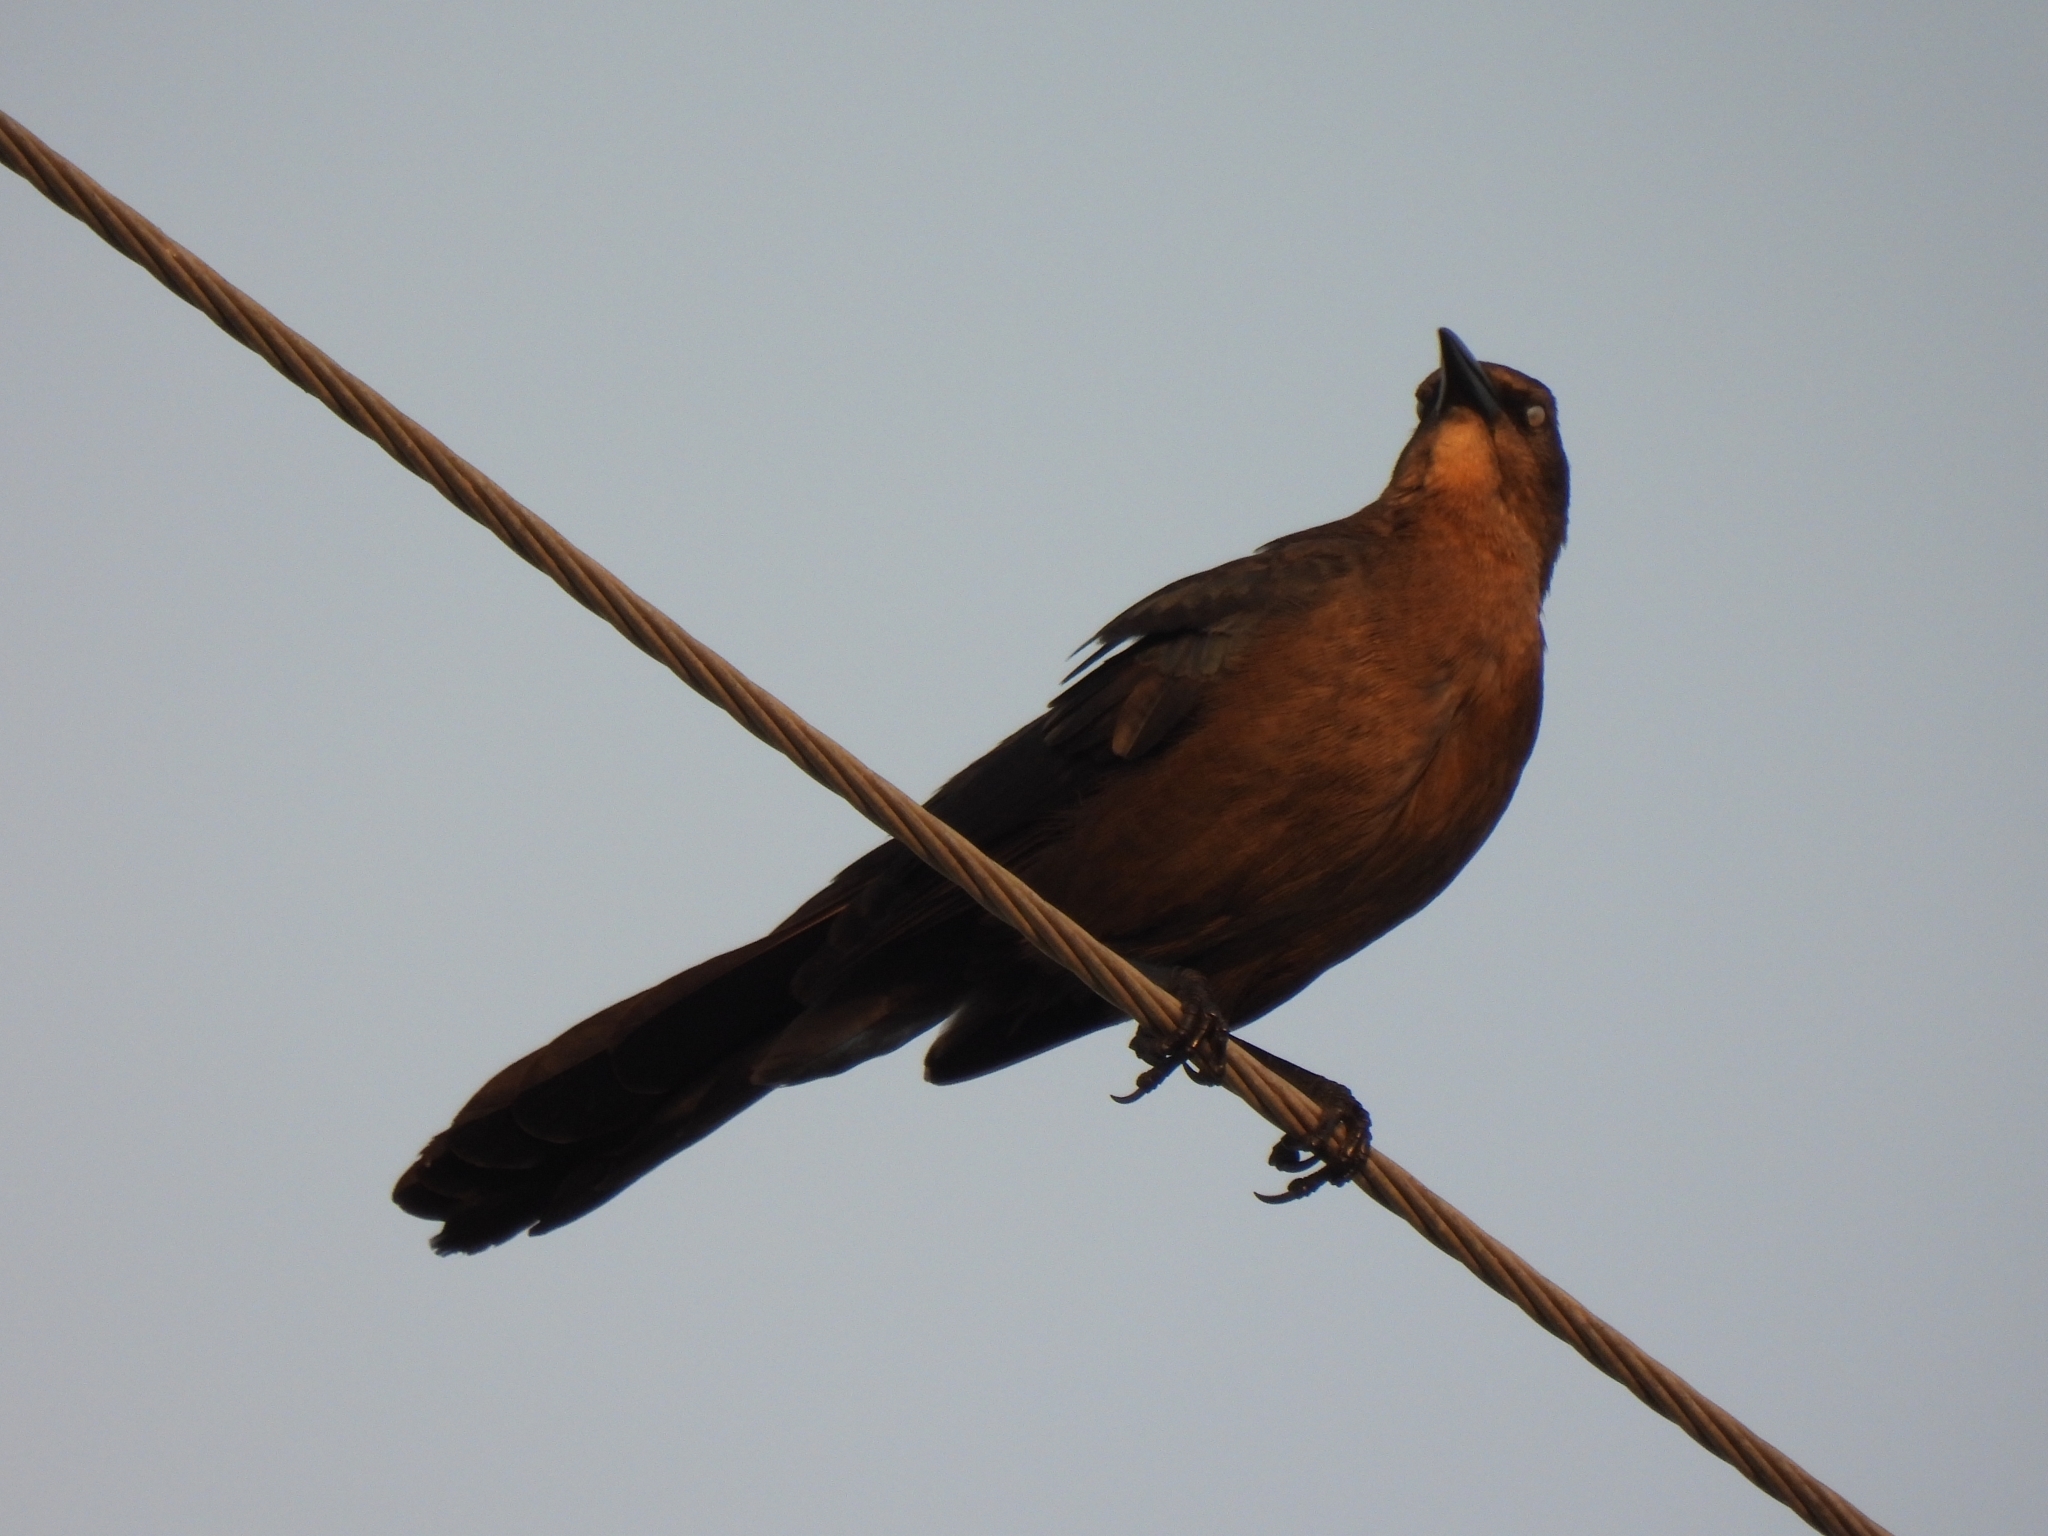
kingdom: Animalia
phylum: Chordata
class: Aves
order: Passeriformes
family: Icteridae
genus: Quiscalus
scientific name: Quiscalus mexicanus
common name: Great-tailed grackle
